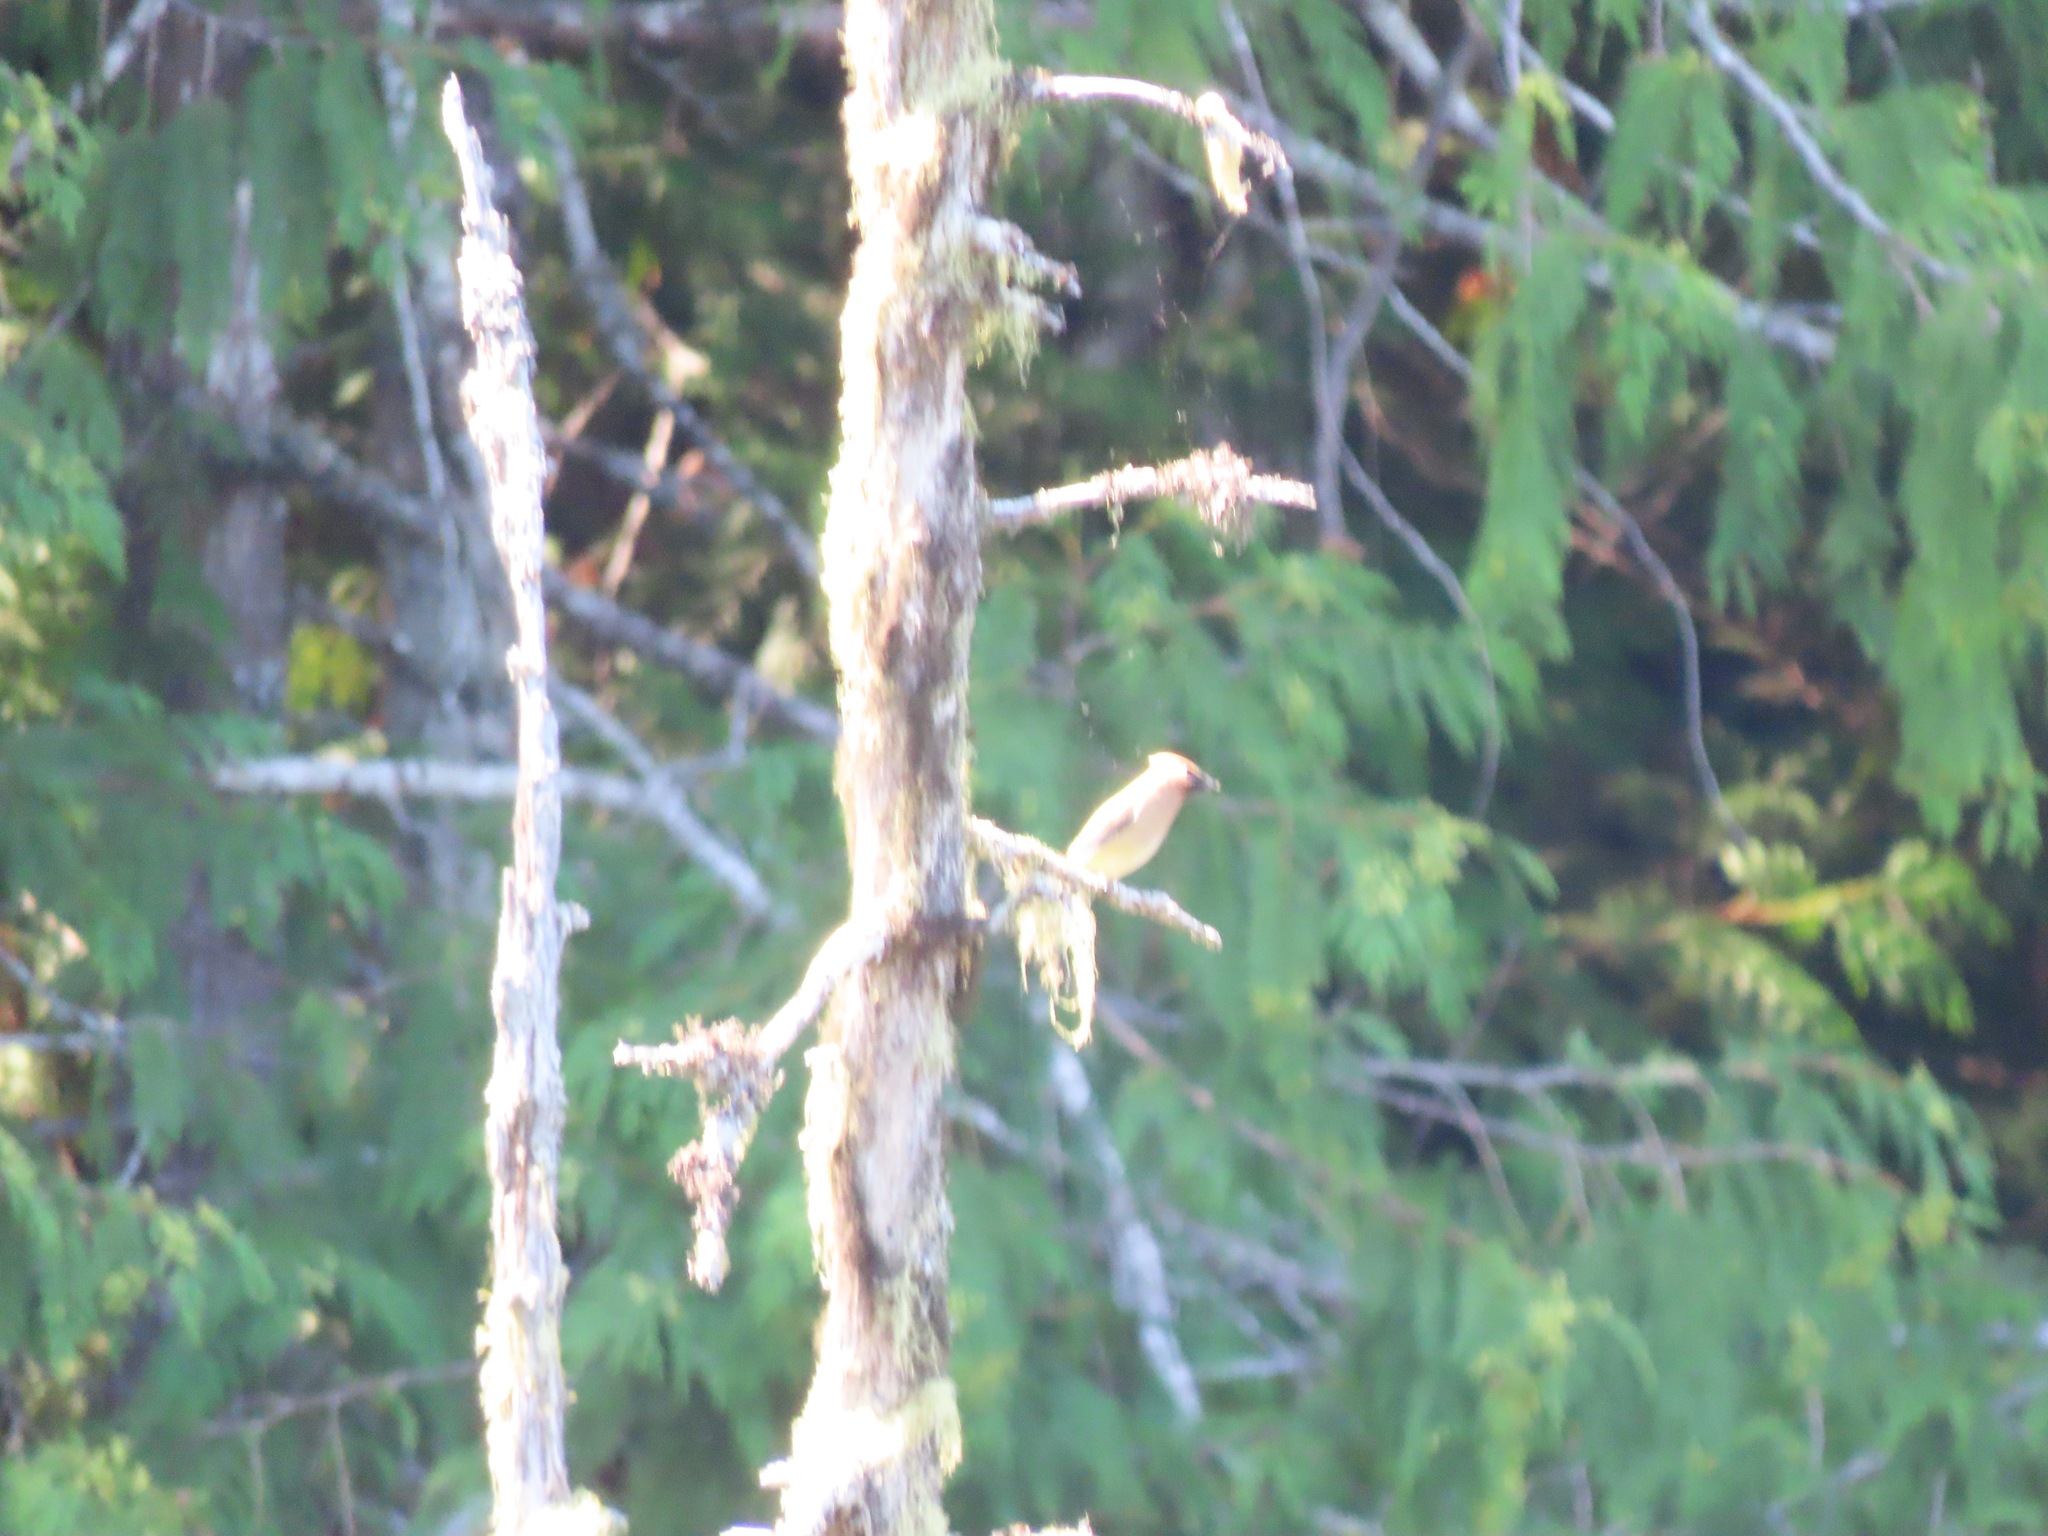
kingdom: Animalia
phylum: Chordata
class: Aves
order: Passeriformes
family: Bombycillidae
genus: Bombycilla
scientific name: Bombycilla cedrorum
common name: Cedar waxwing
